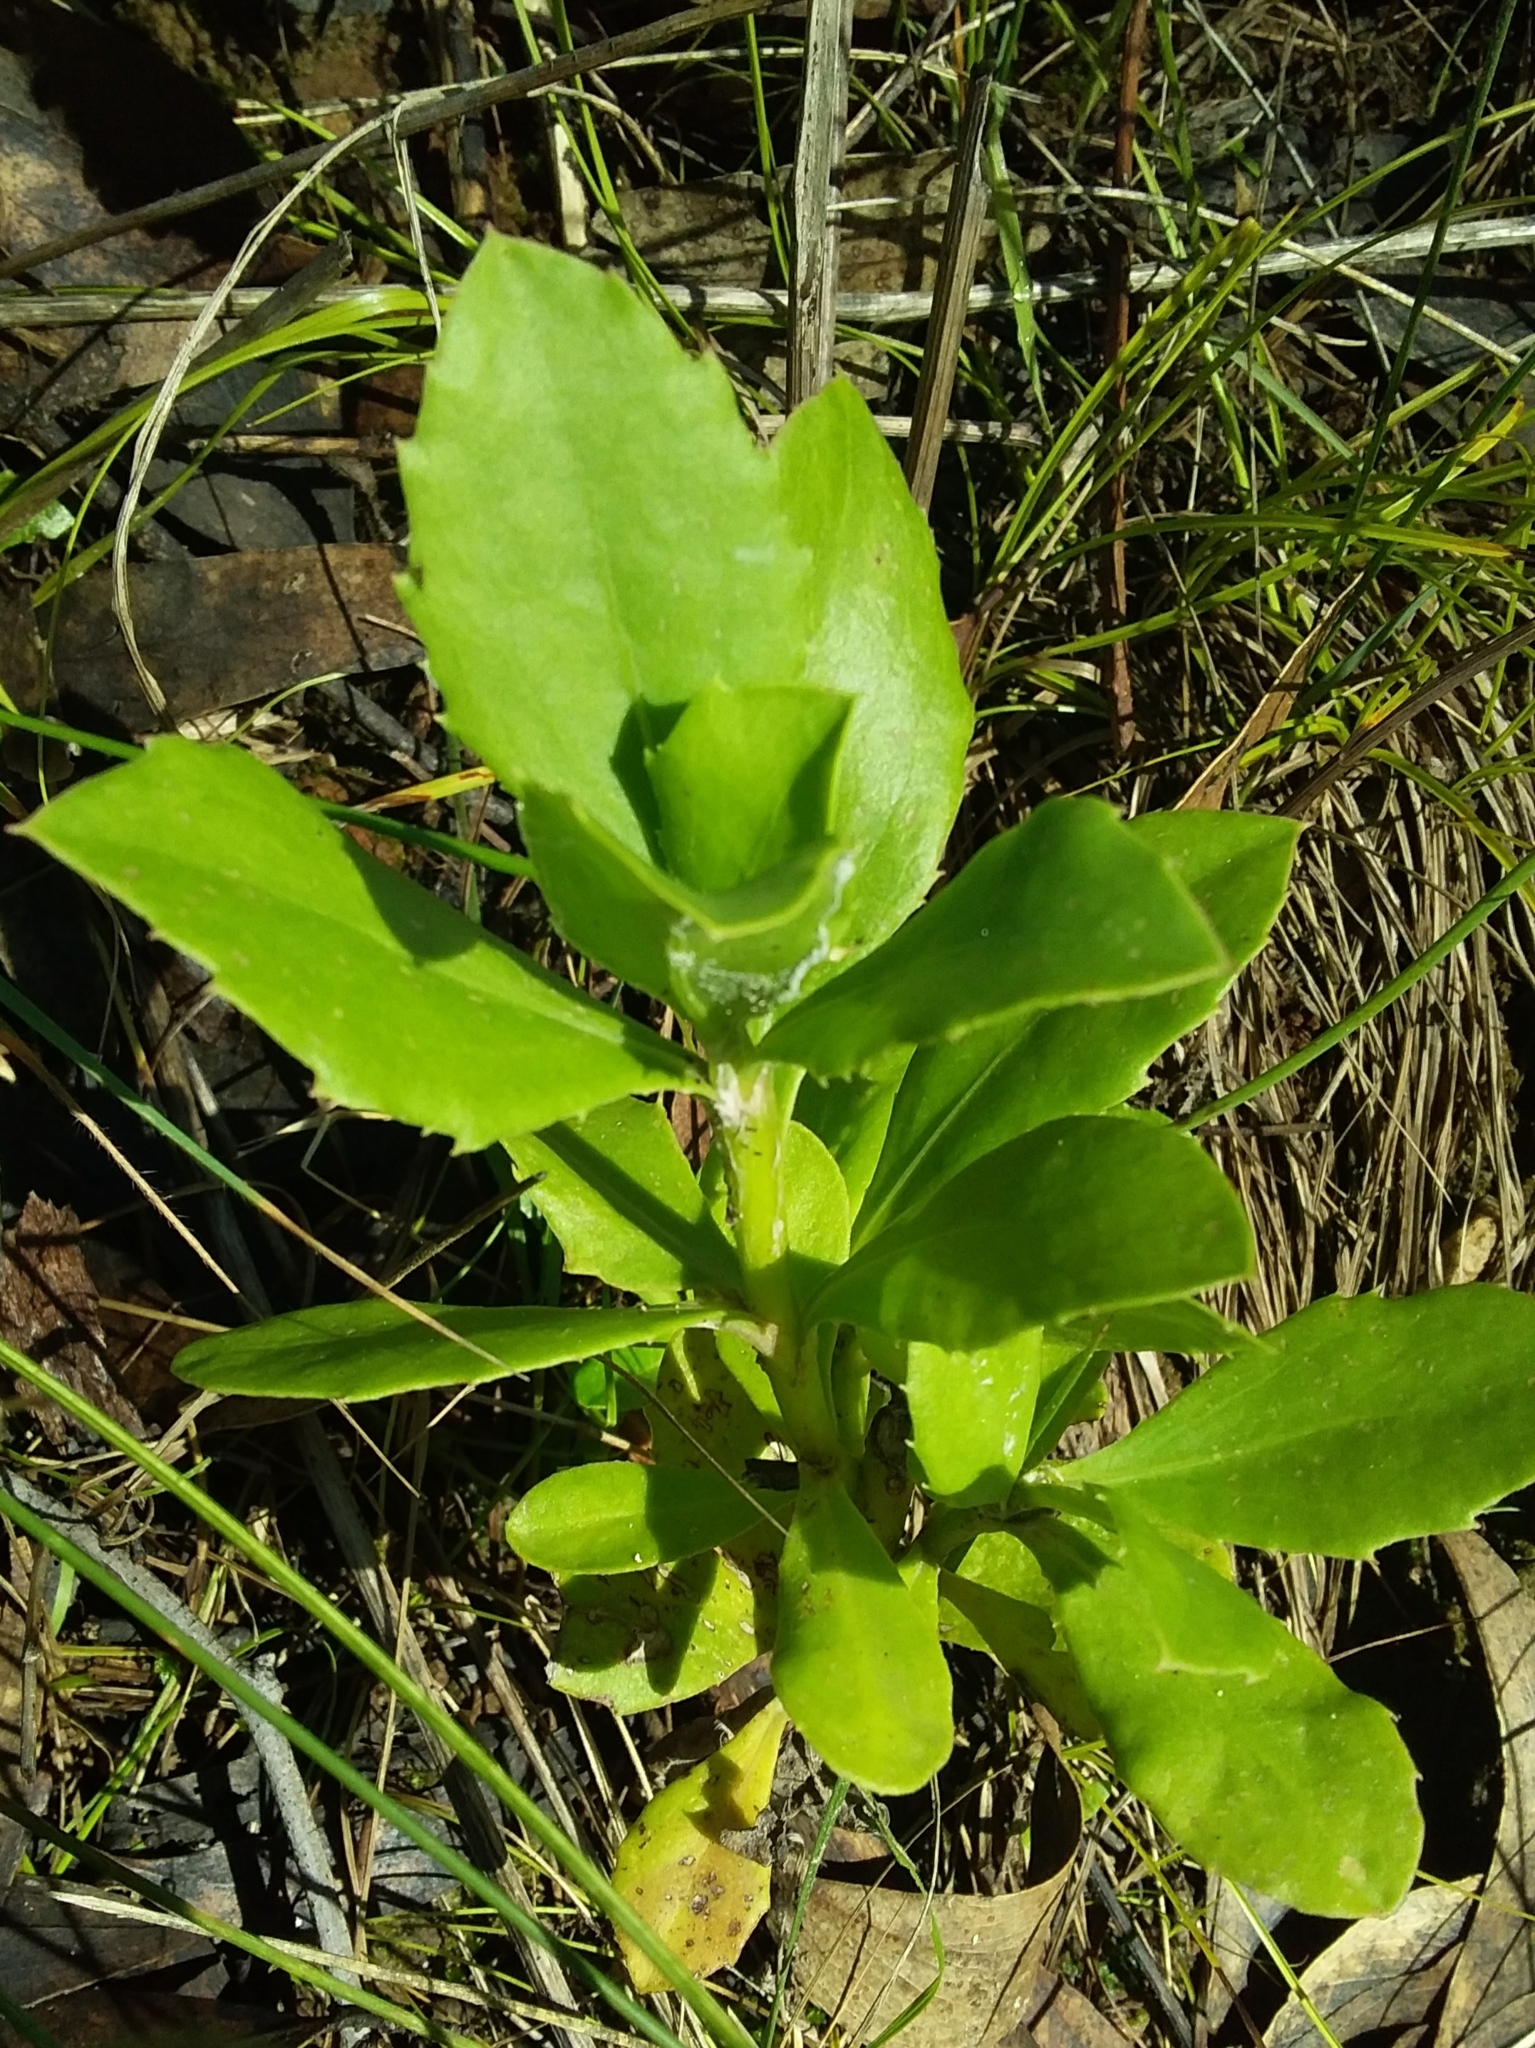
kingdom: Plantae
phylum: Tracheophyta
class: Magnoliopsida
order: Asterales
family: Asteraceae
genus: Osteospermum
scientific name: Osteospermum moniliferum
